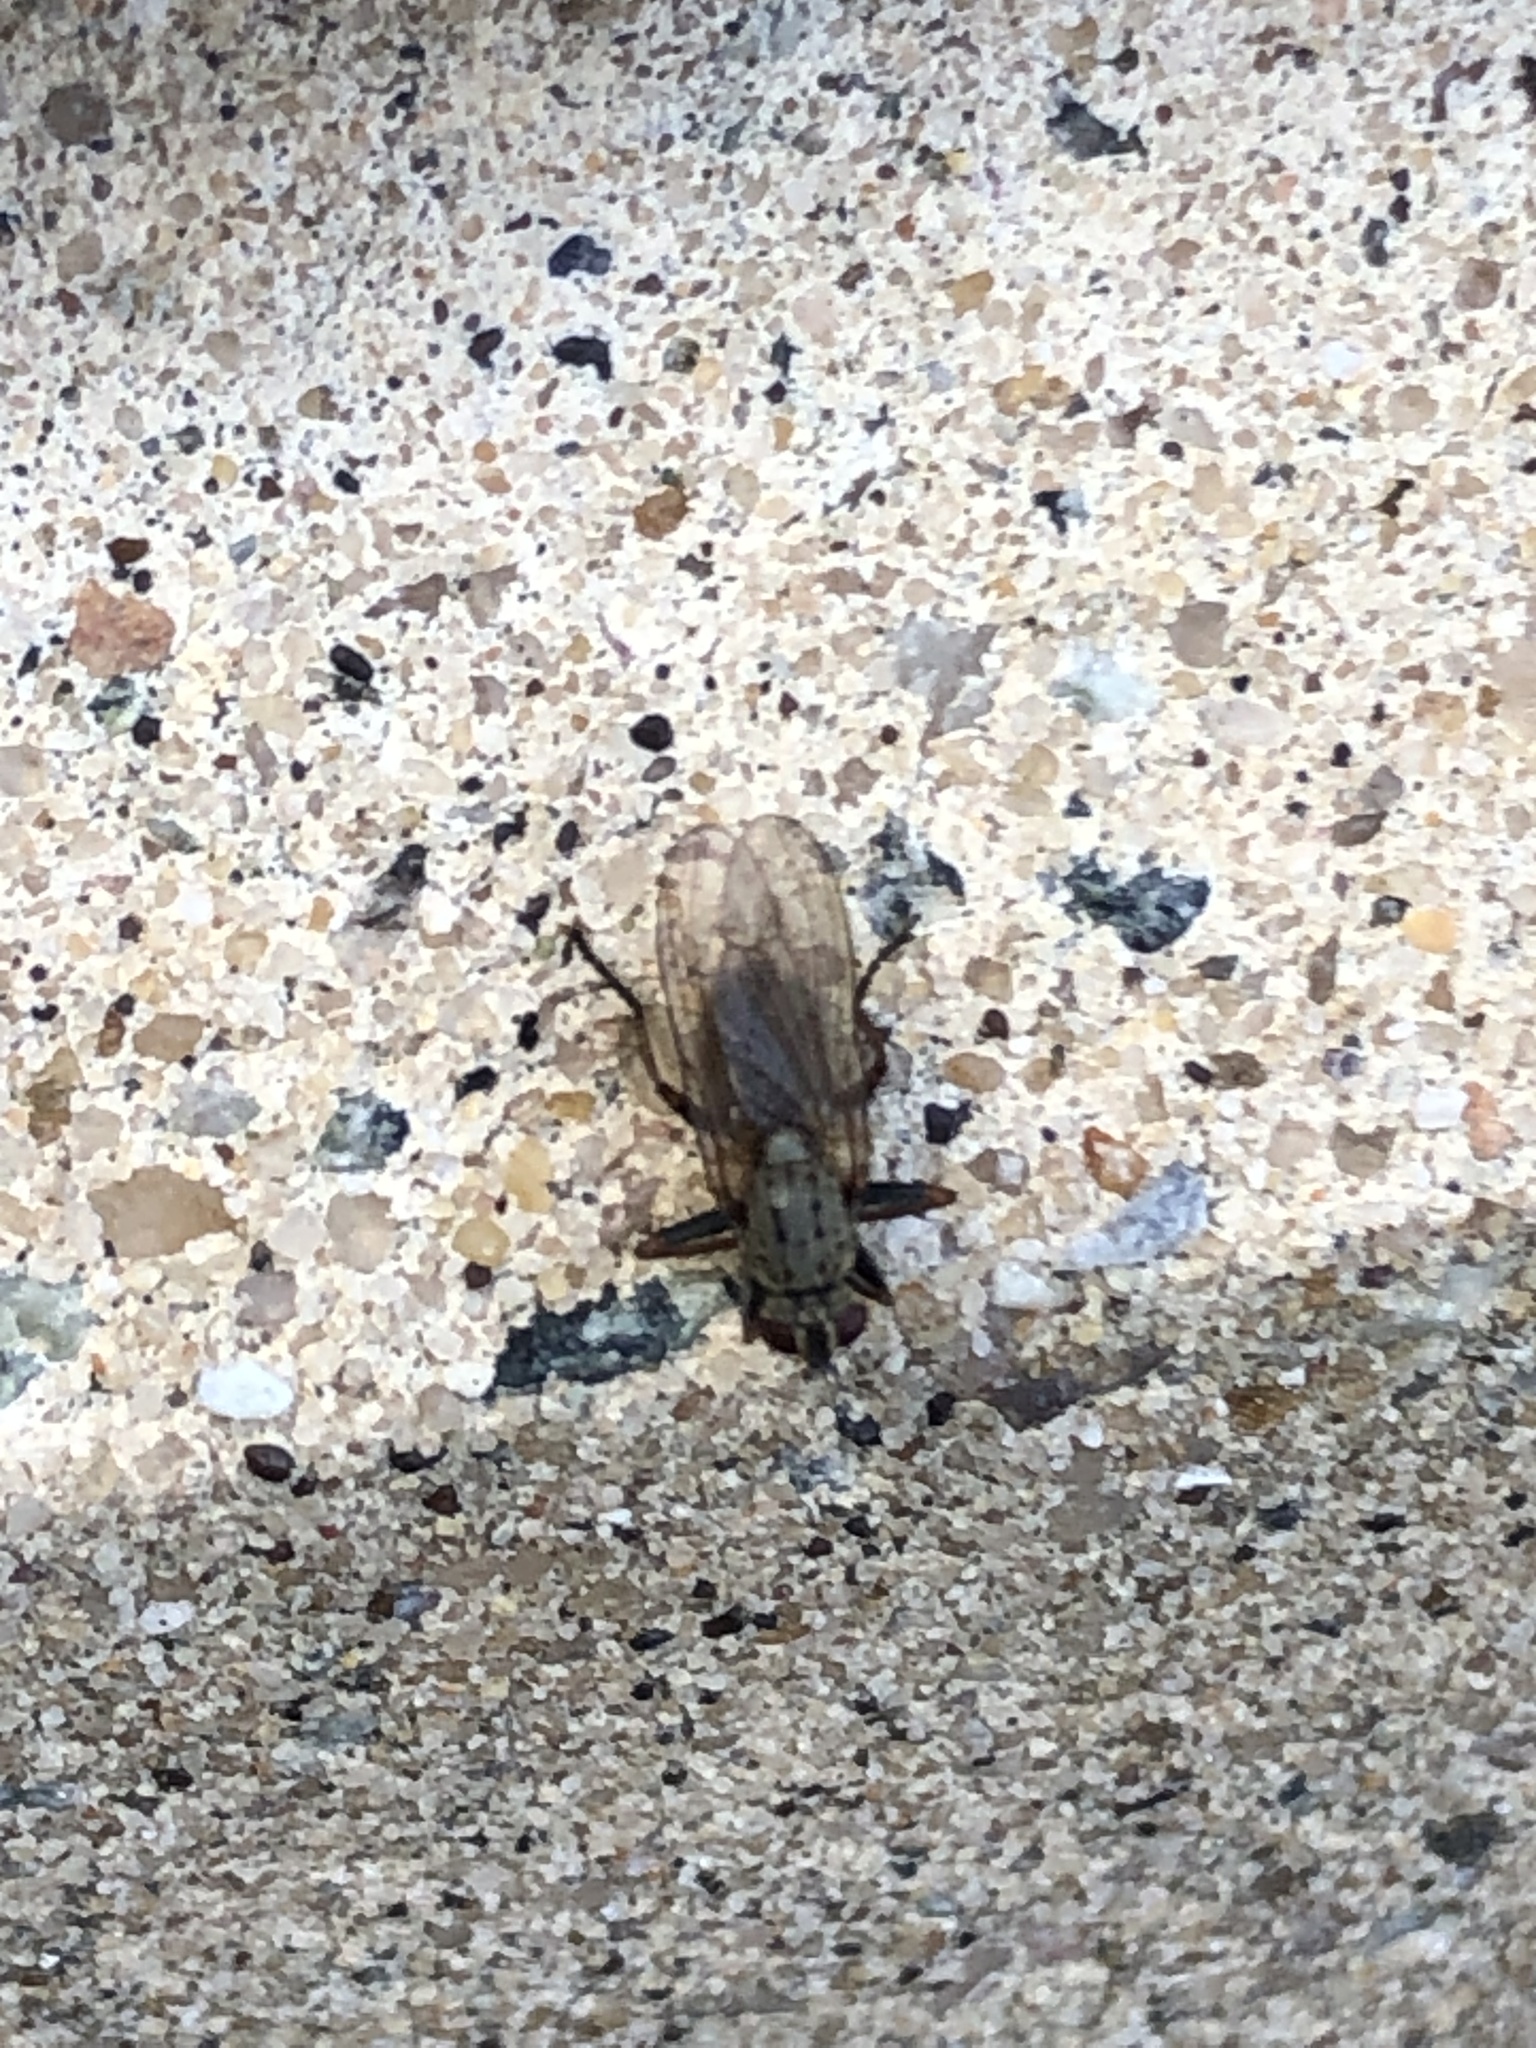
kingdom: Animalia
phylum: Arthropoda
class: Insecta
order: Diptera
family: Muscidae
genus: Coenosia
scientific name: Coenosia tigrina
